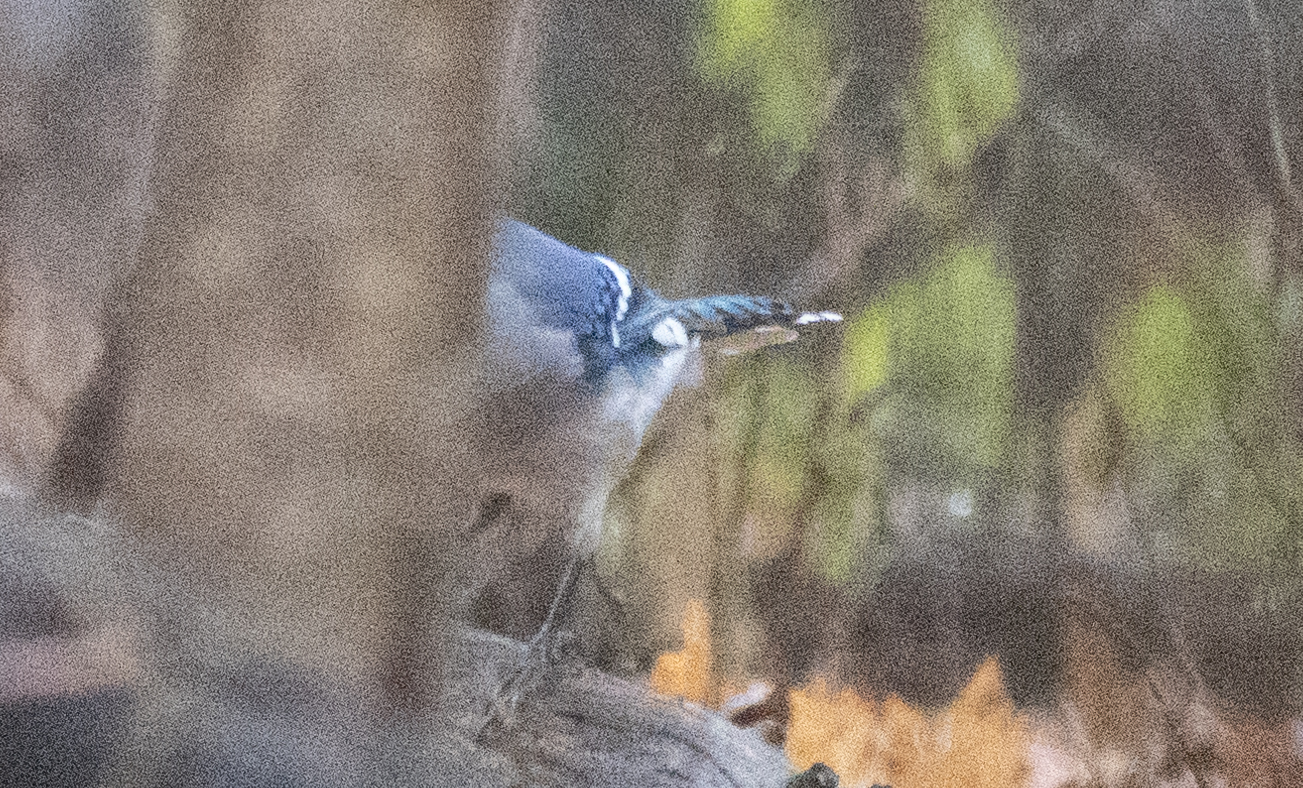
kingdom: Animalia
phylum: Chordata
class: Aves
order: Passeriformes
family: Corvidae
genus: Cyanocitta
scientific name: Cyanocitta cristata
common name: Blue jay
